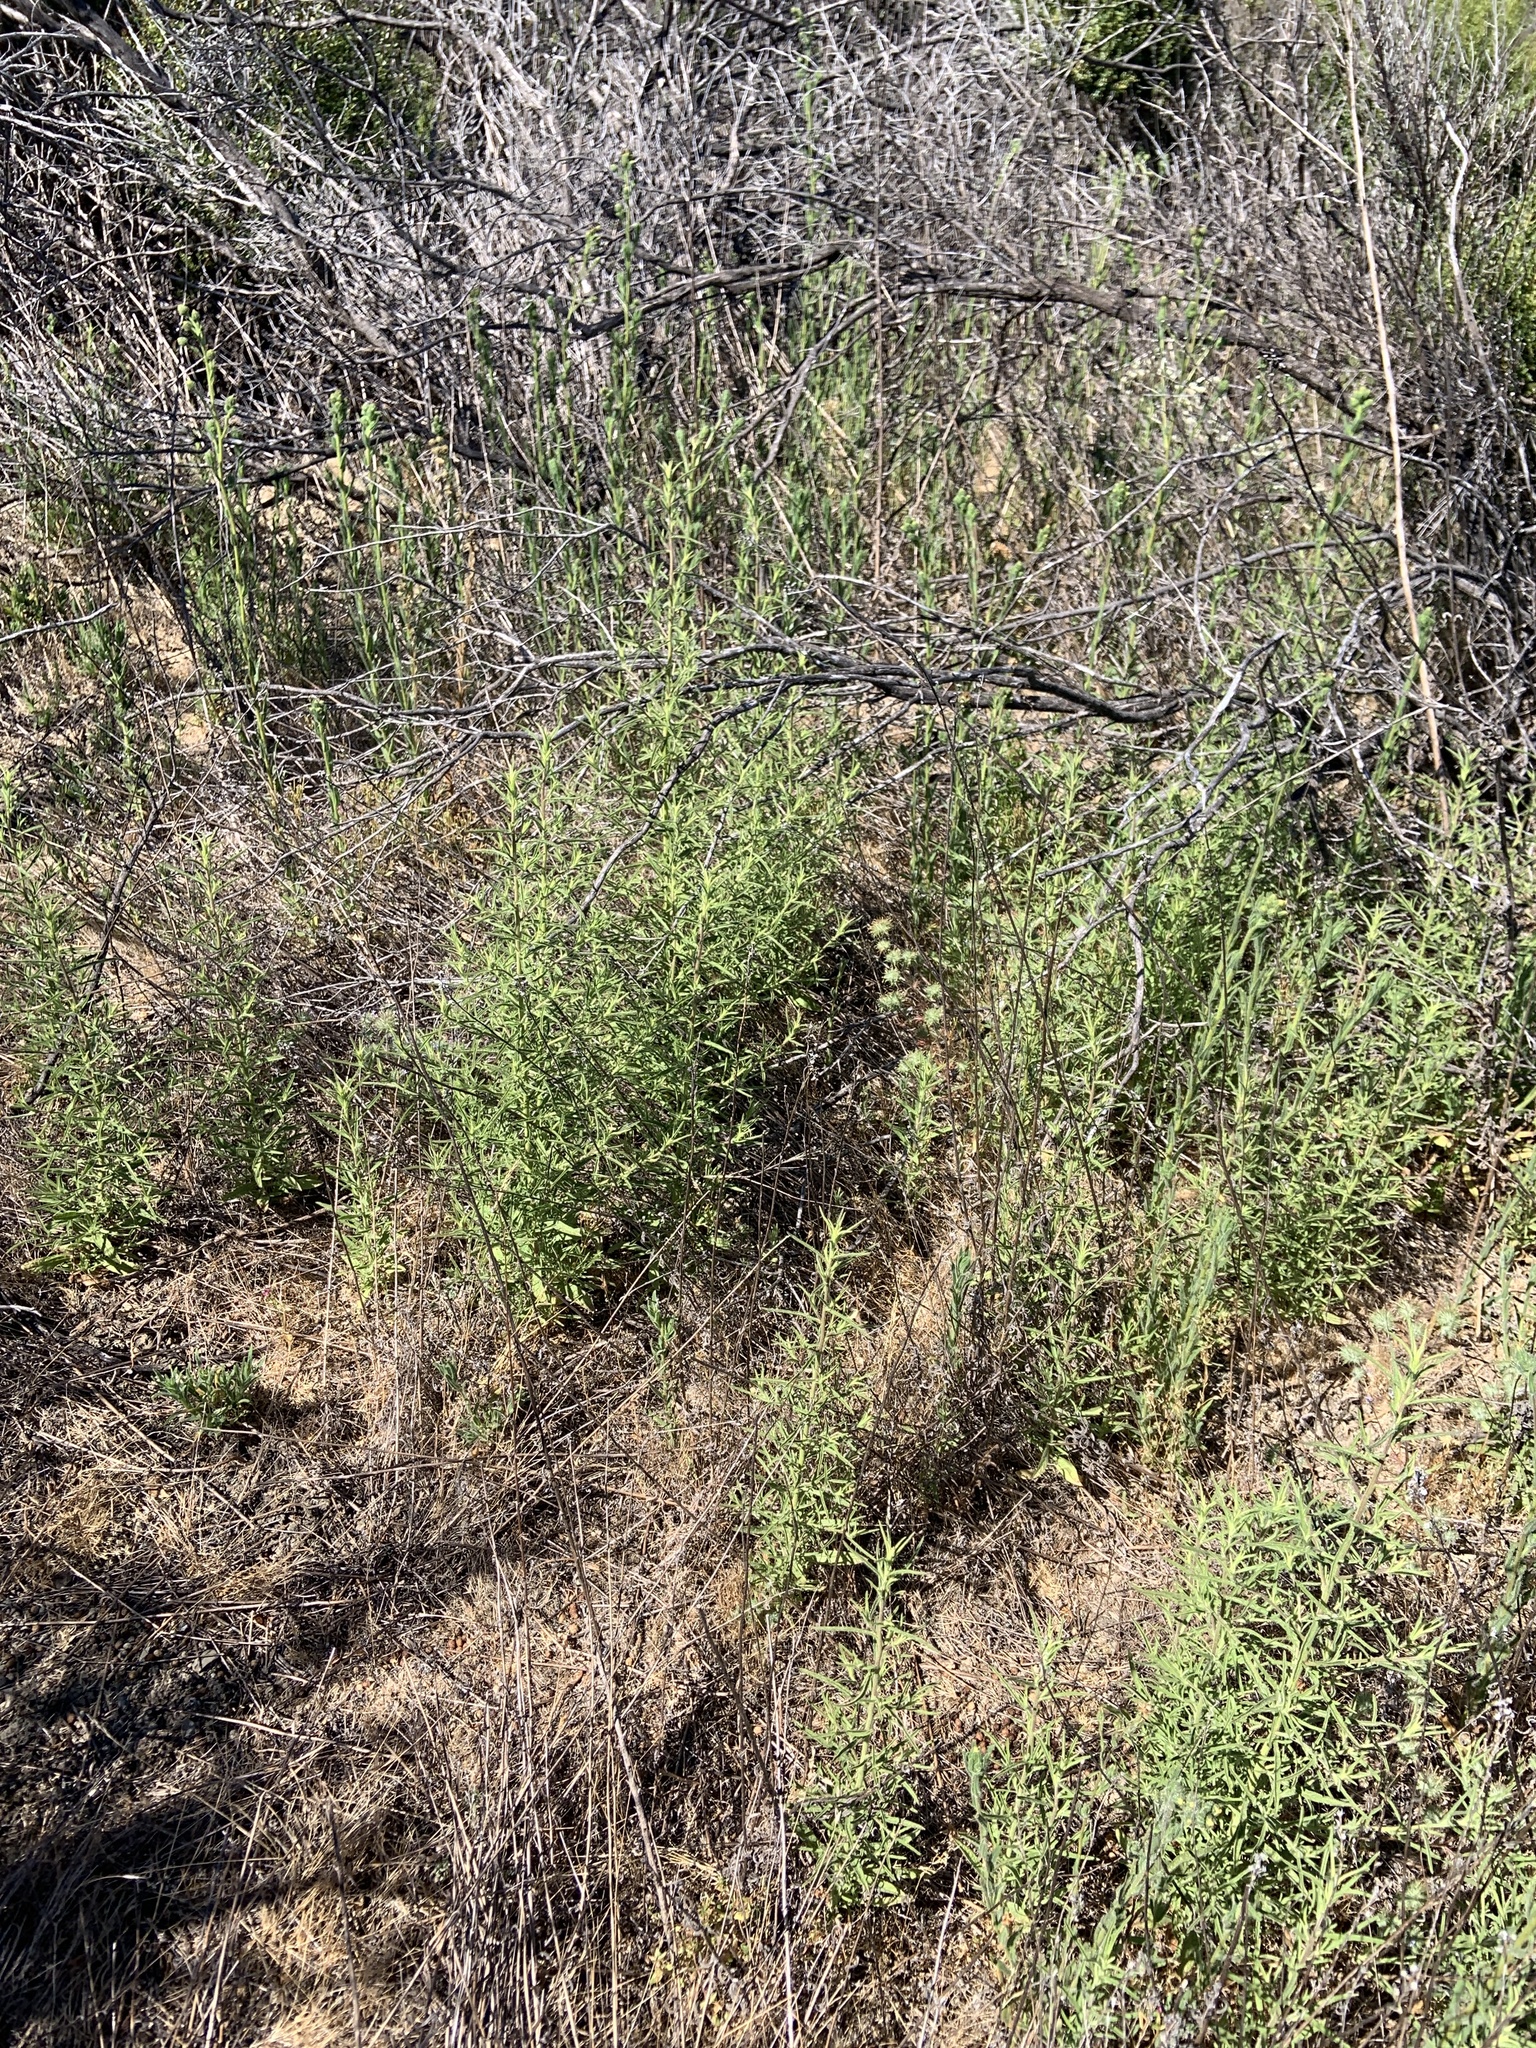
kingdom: Plantae
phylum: Tracheophyta
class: Magnoliopsida
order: Asterales
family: Asteraceae
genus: Dittrichia
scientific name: Dittrichia graveolens
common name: Stinking fleabane
